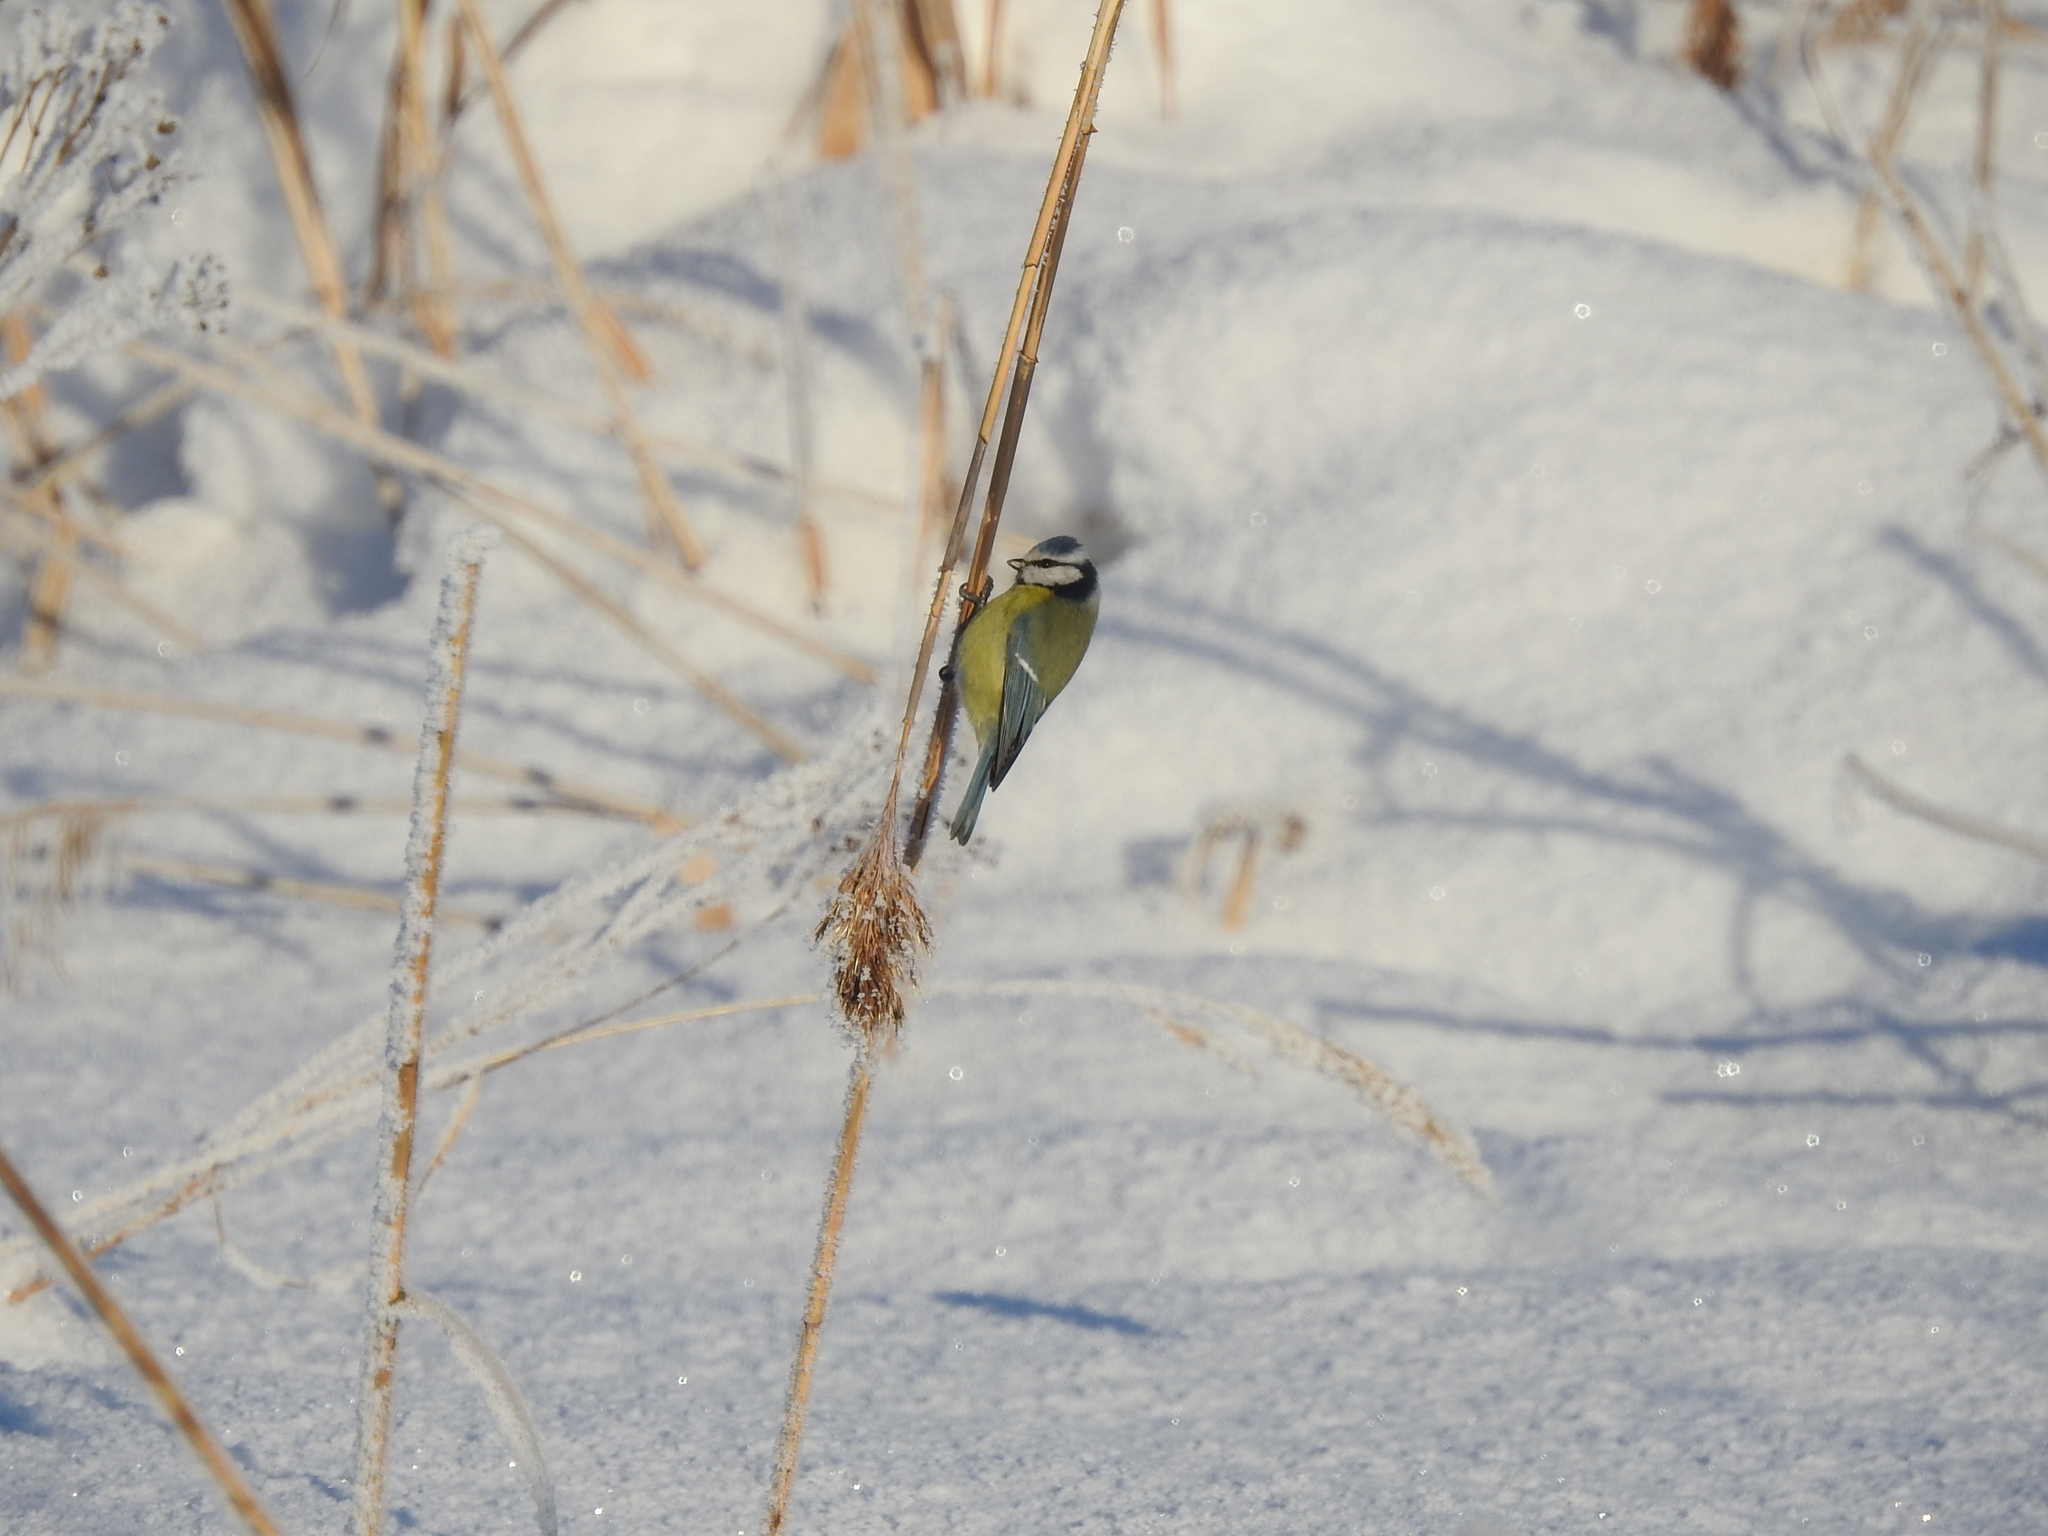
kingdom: Animalia
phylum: Chordata
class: Aves
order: Passeriformes
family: Paridae
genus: Cyanistes
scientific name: Cyanistes caeruleus
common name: Eurasian blue tit
